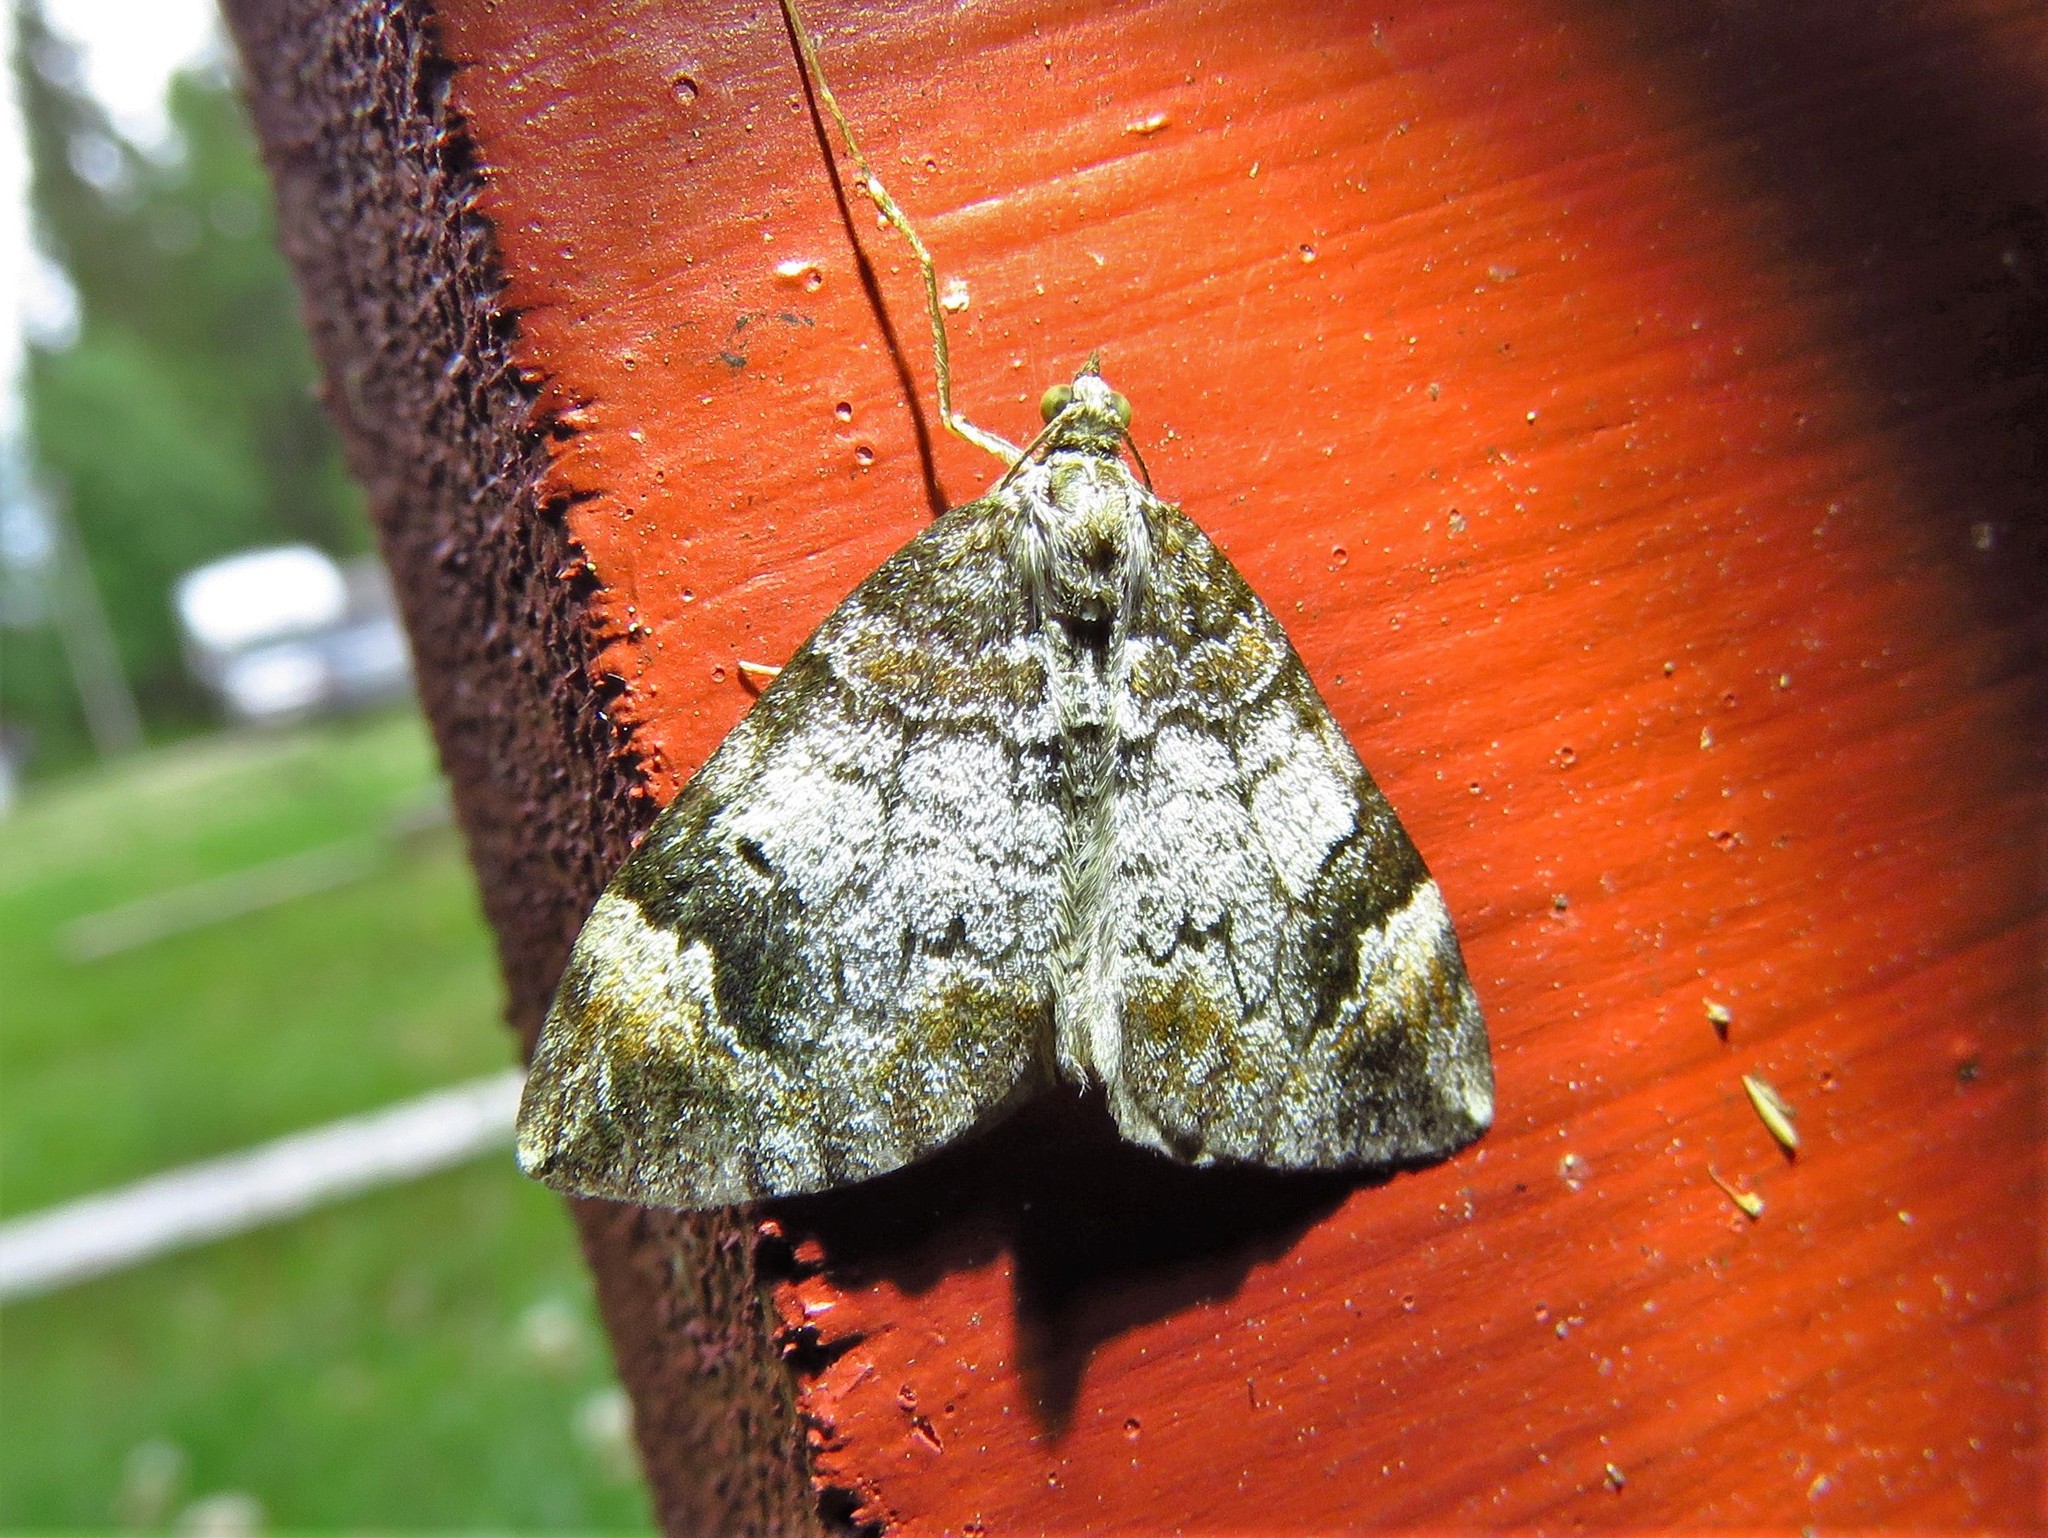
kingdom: Animalia
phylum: Arthropoda
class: Insecta
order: Lepidoptera
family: Geometridae
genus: Dysstroma
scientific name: Dysstroma truncata
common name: Common marbled carpet
